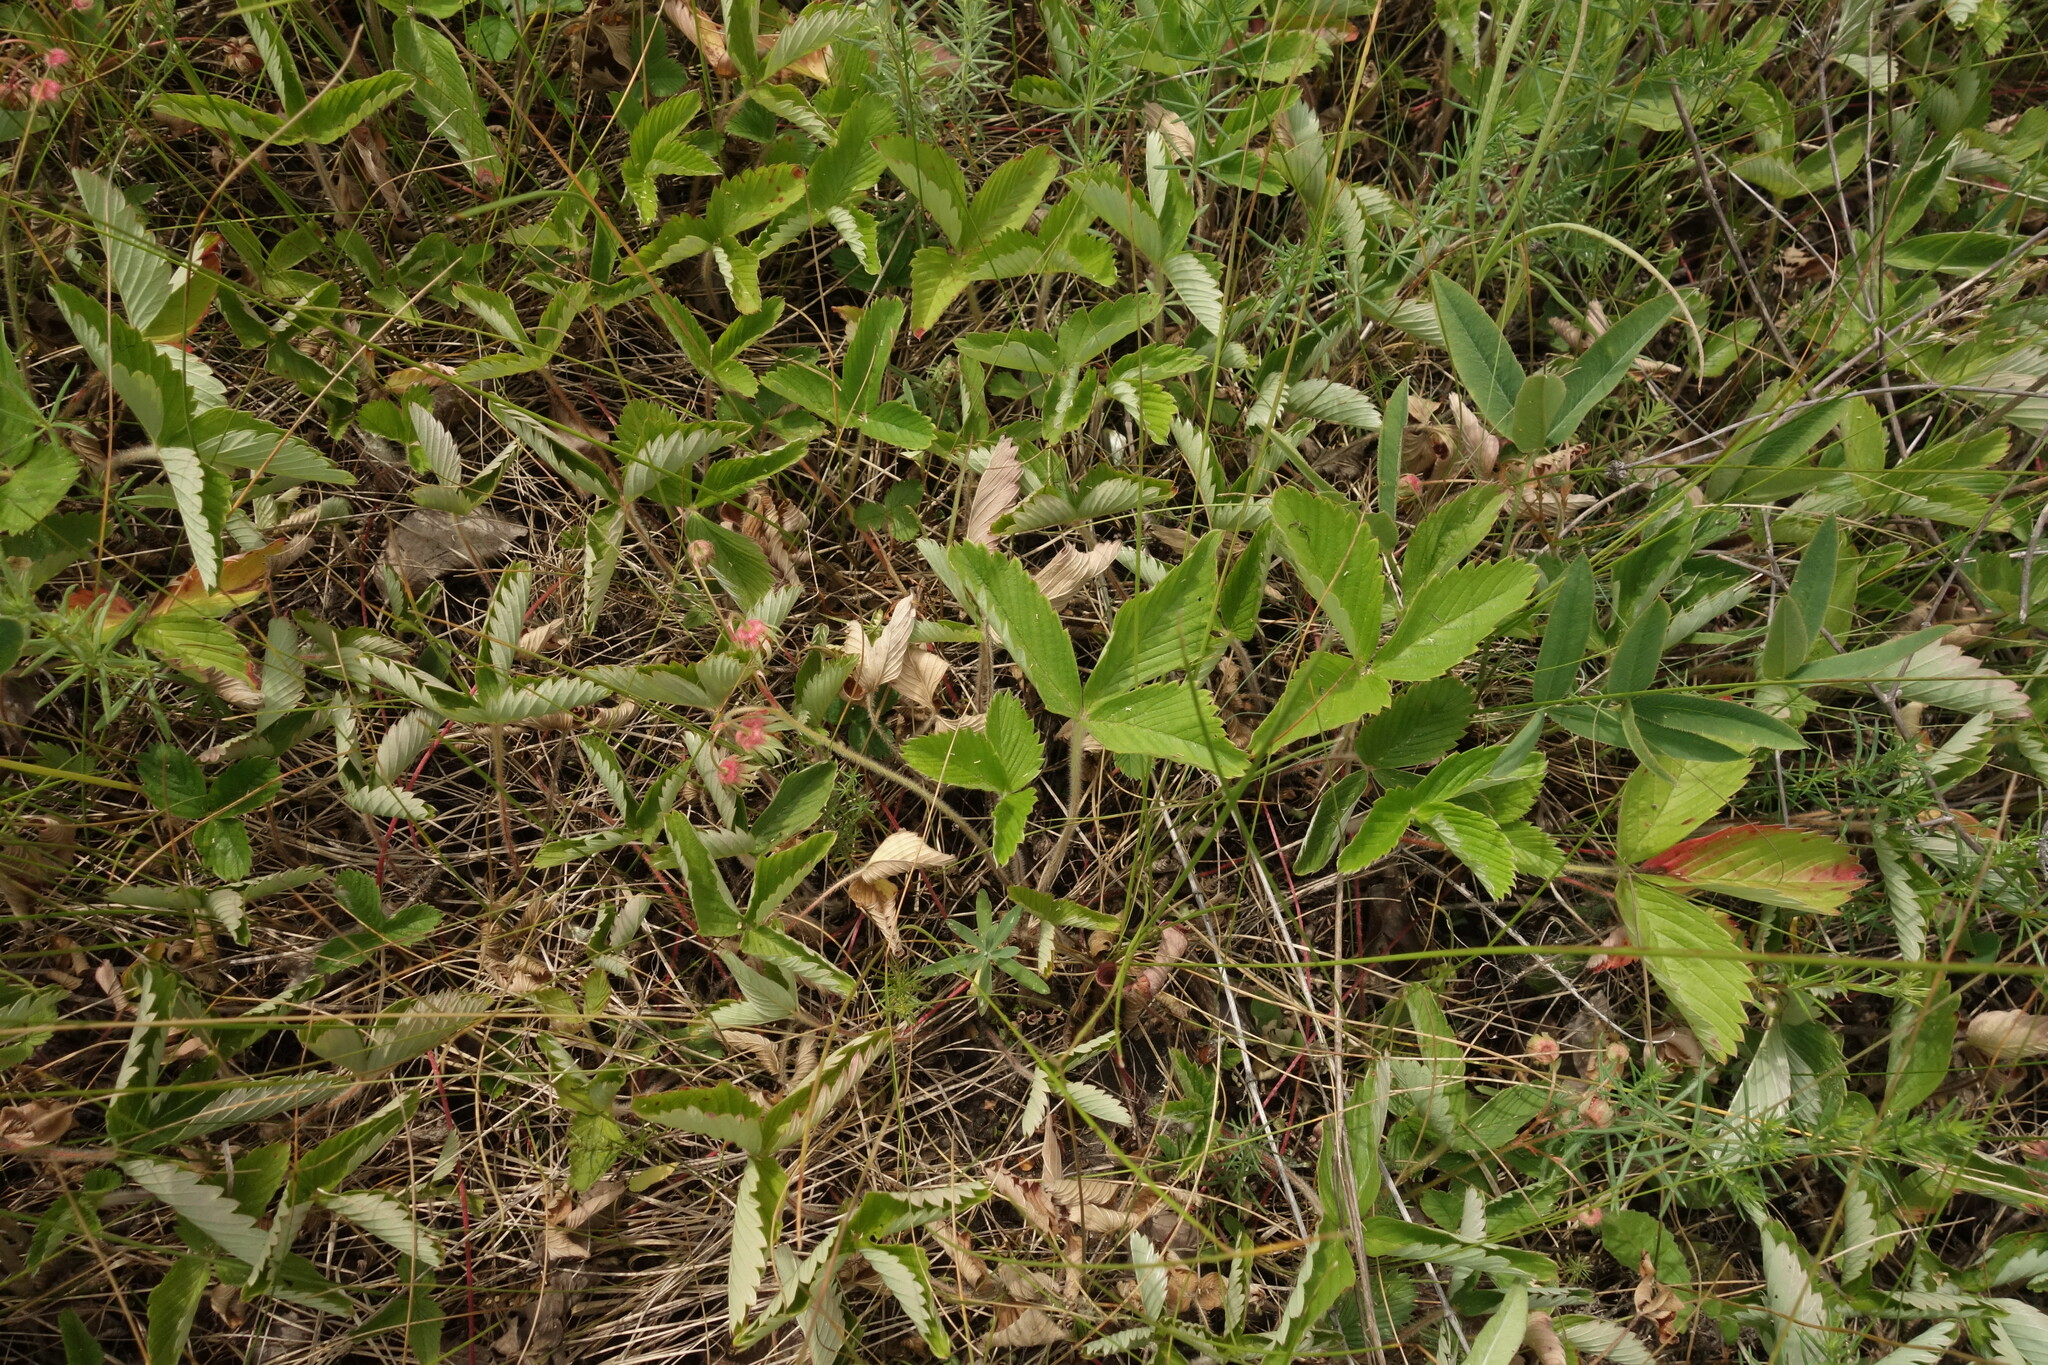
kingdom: Plantae
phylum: Tracheophyta
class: Magnoliopsida
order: Rosales
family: Rosaceae
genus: Fragaria
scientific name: Fragaria viridis
